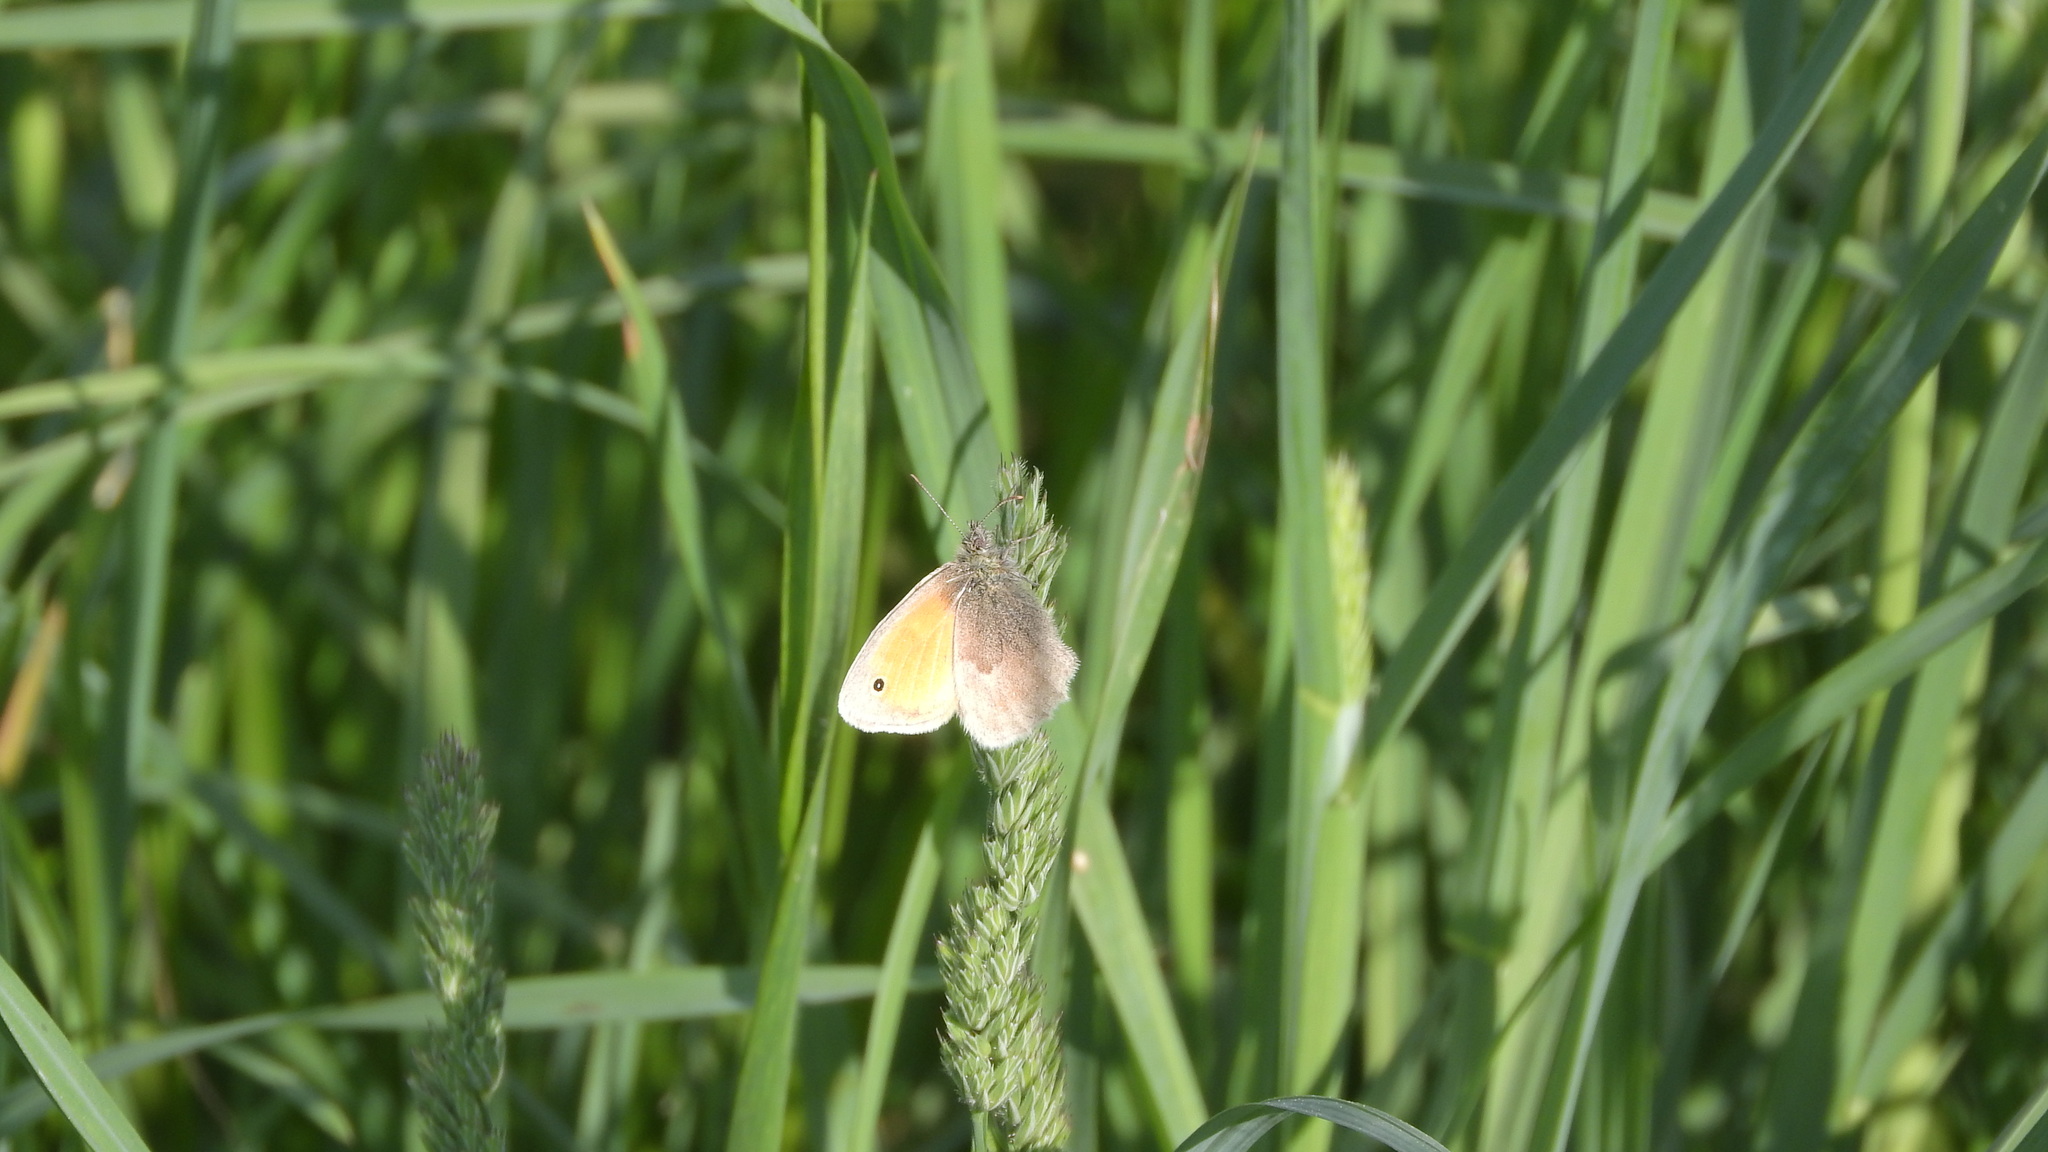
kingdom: Animalia
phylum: Arthropoda
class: Insecta
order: Lepidoptera
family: Nymphalidae
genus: Coenonympha
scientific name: Coenonympha pamphilus
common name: Small heath
